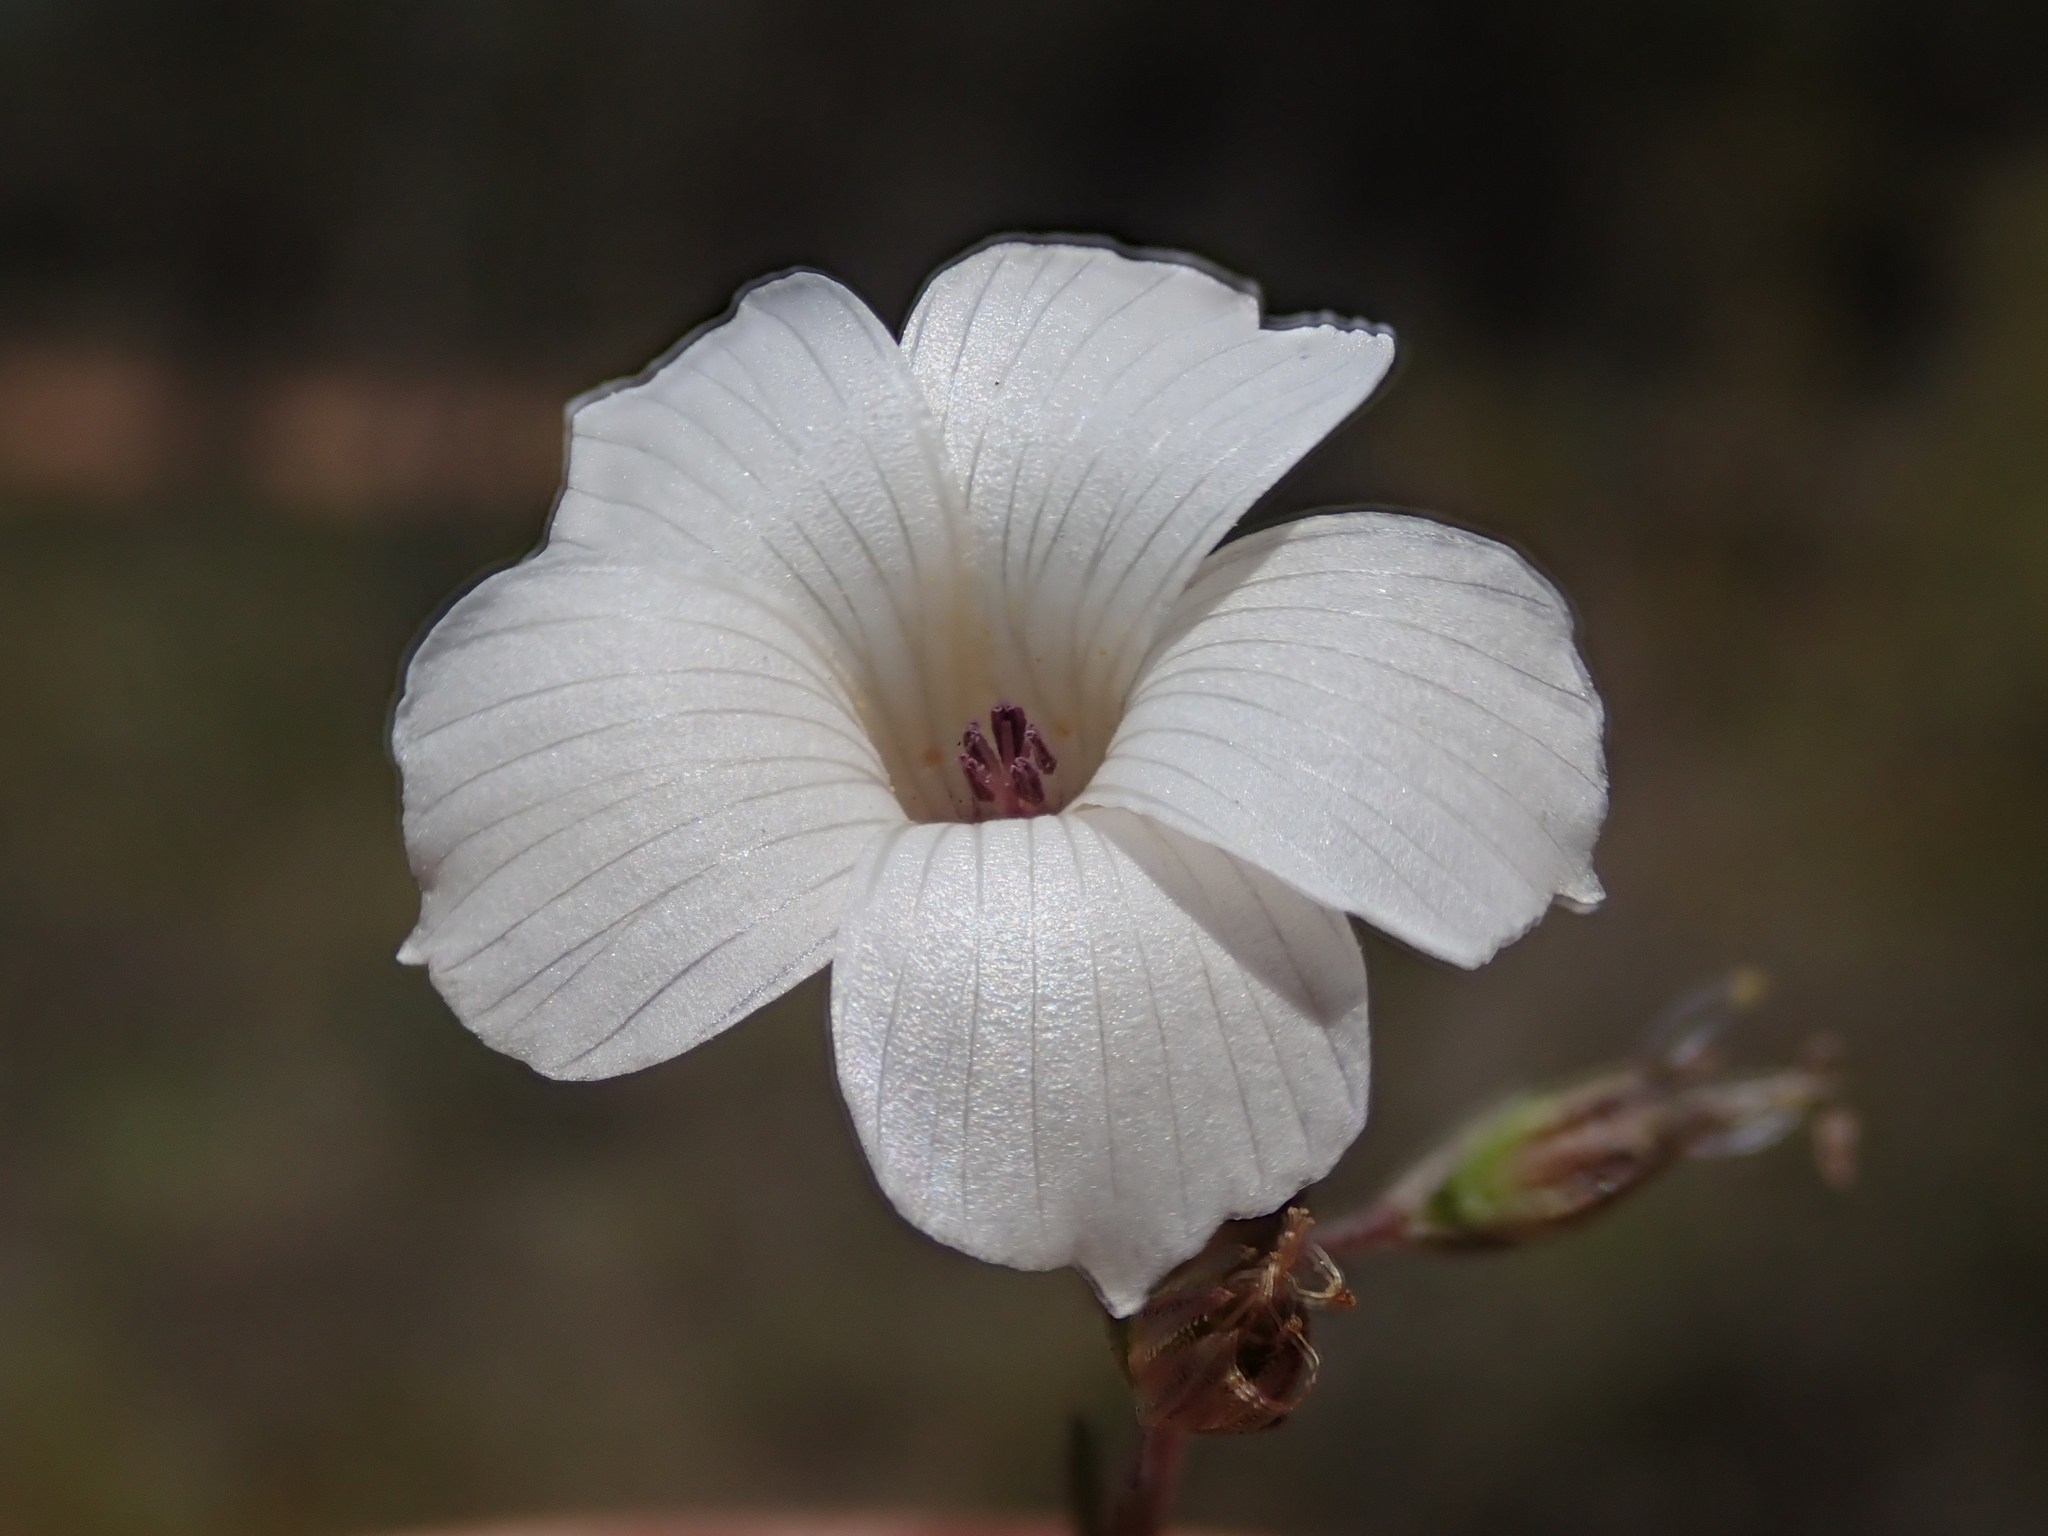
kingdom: Plantae
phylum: Tracheophyta
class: Magnoliopsida
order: Malpighiales
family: Linaceae
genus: Linum
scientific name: Linum suffruticosum
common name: White flax
